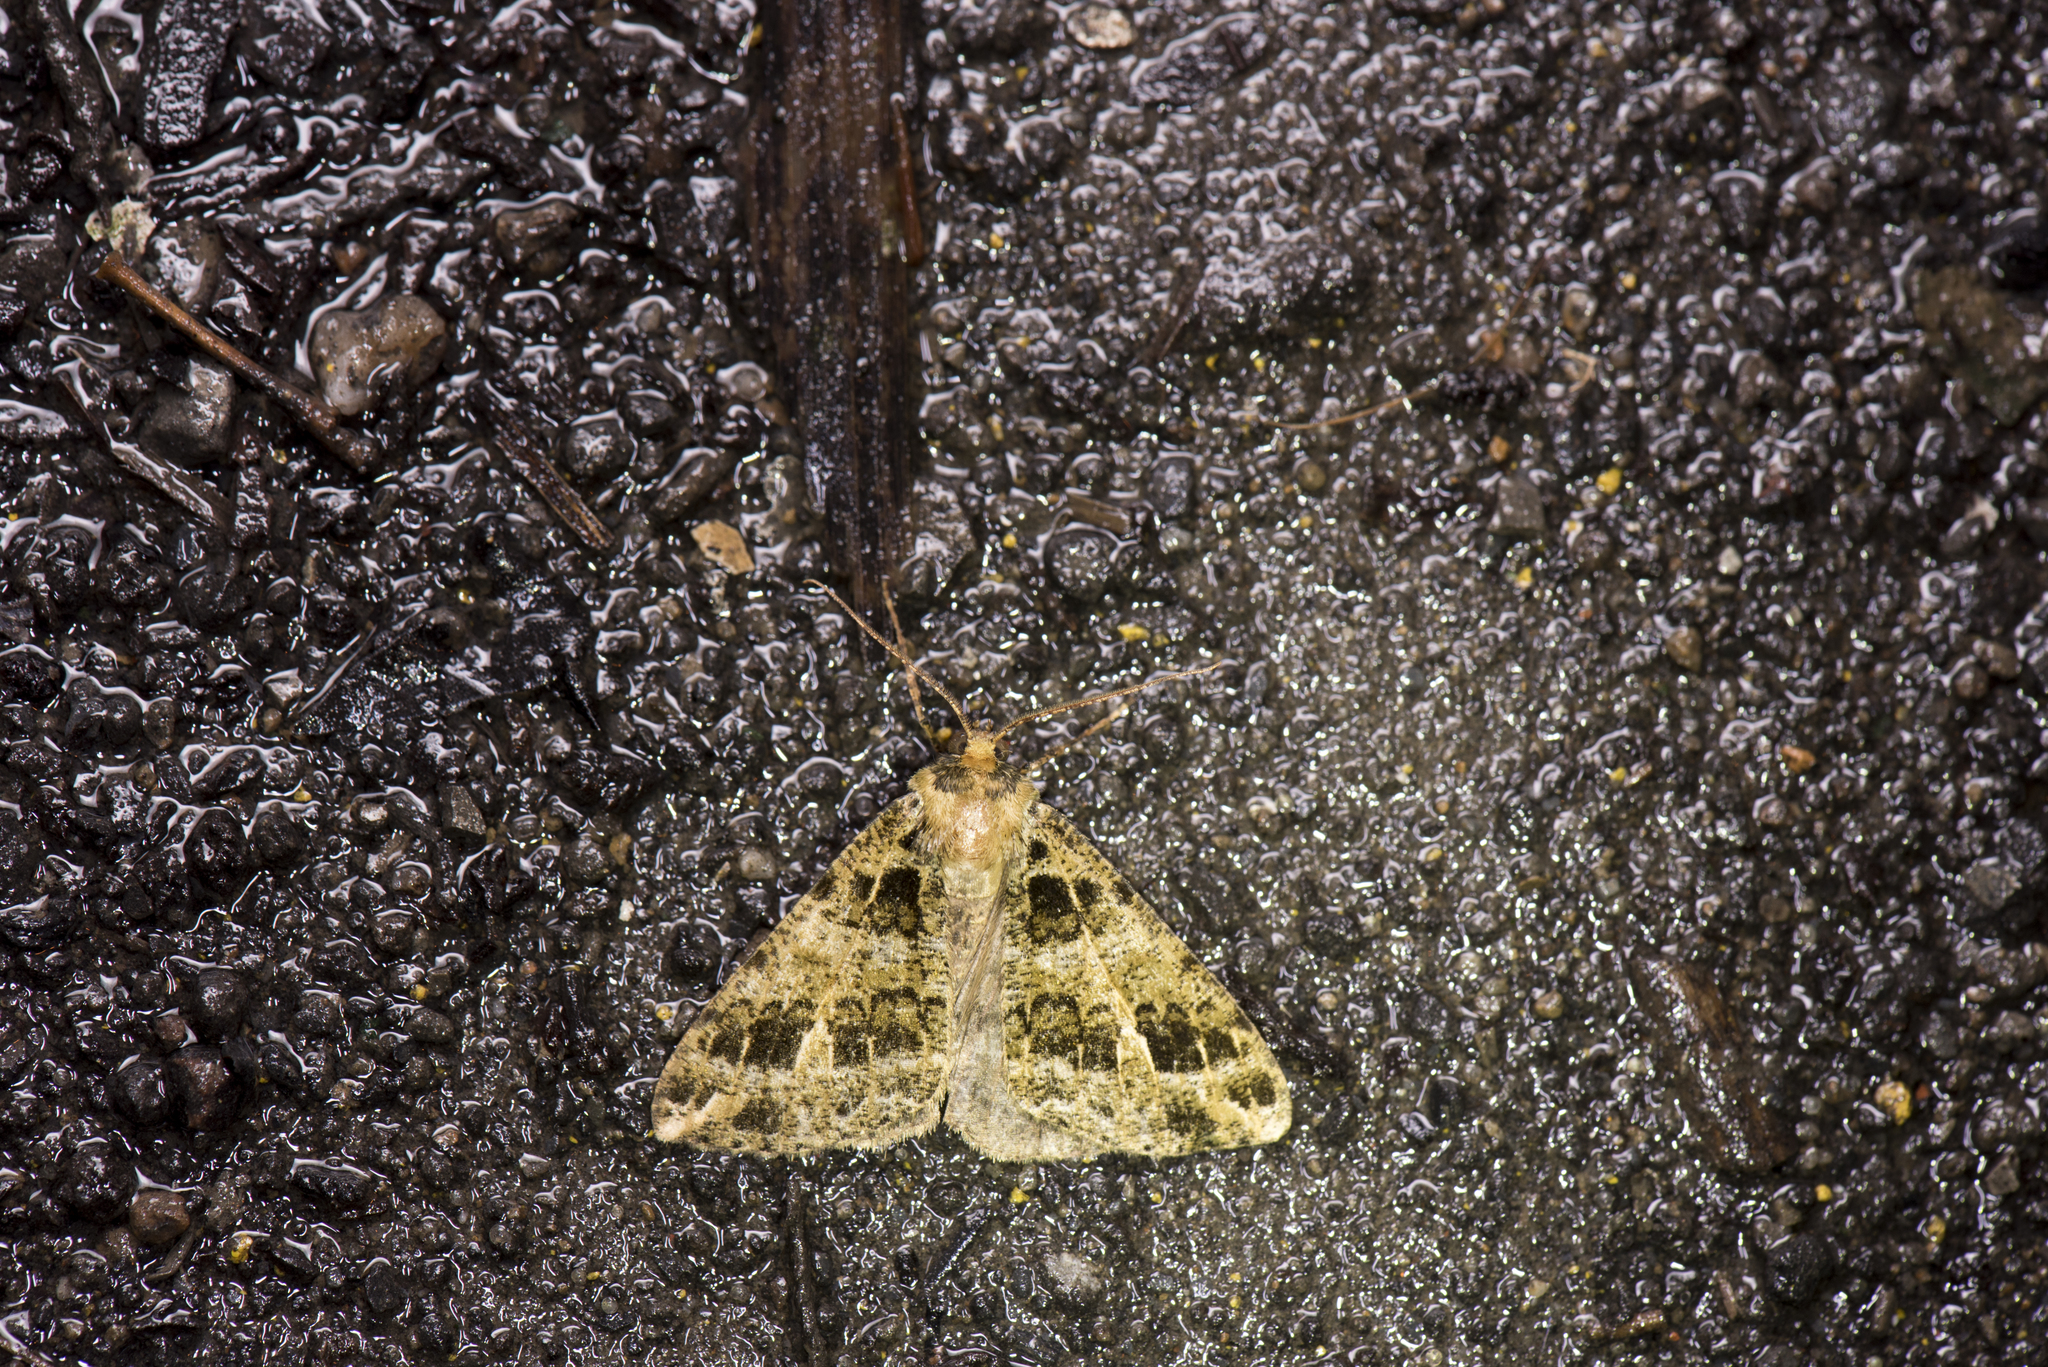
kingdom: Animalia
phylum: Arthropoda
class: Insecta
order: Lepidoptera
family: Geometridae
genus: Arichanna
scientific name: Arichanna marginata
